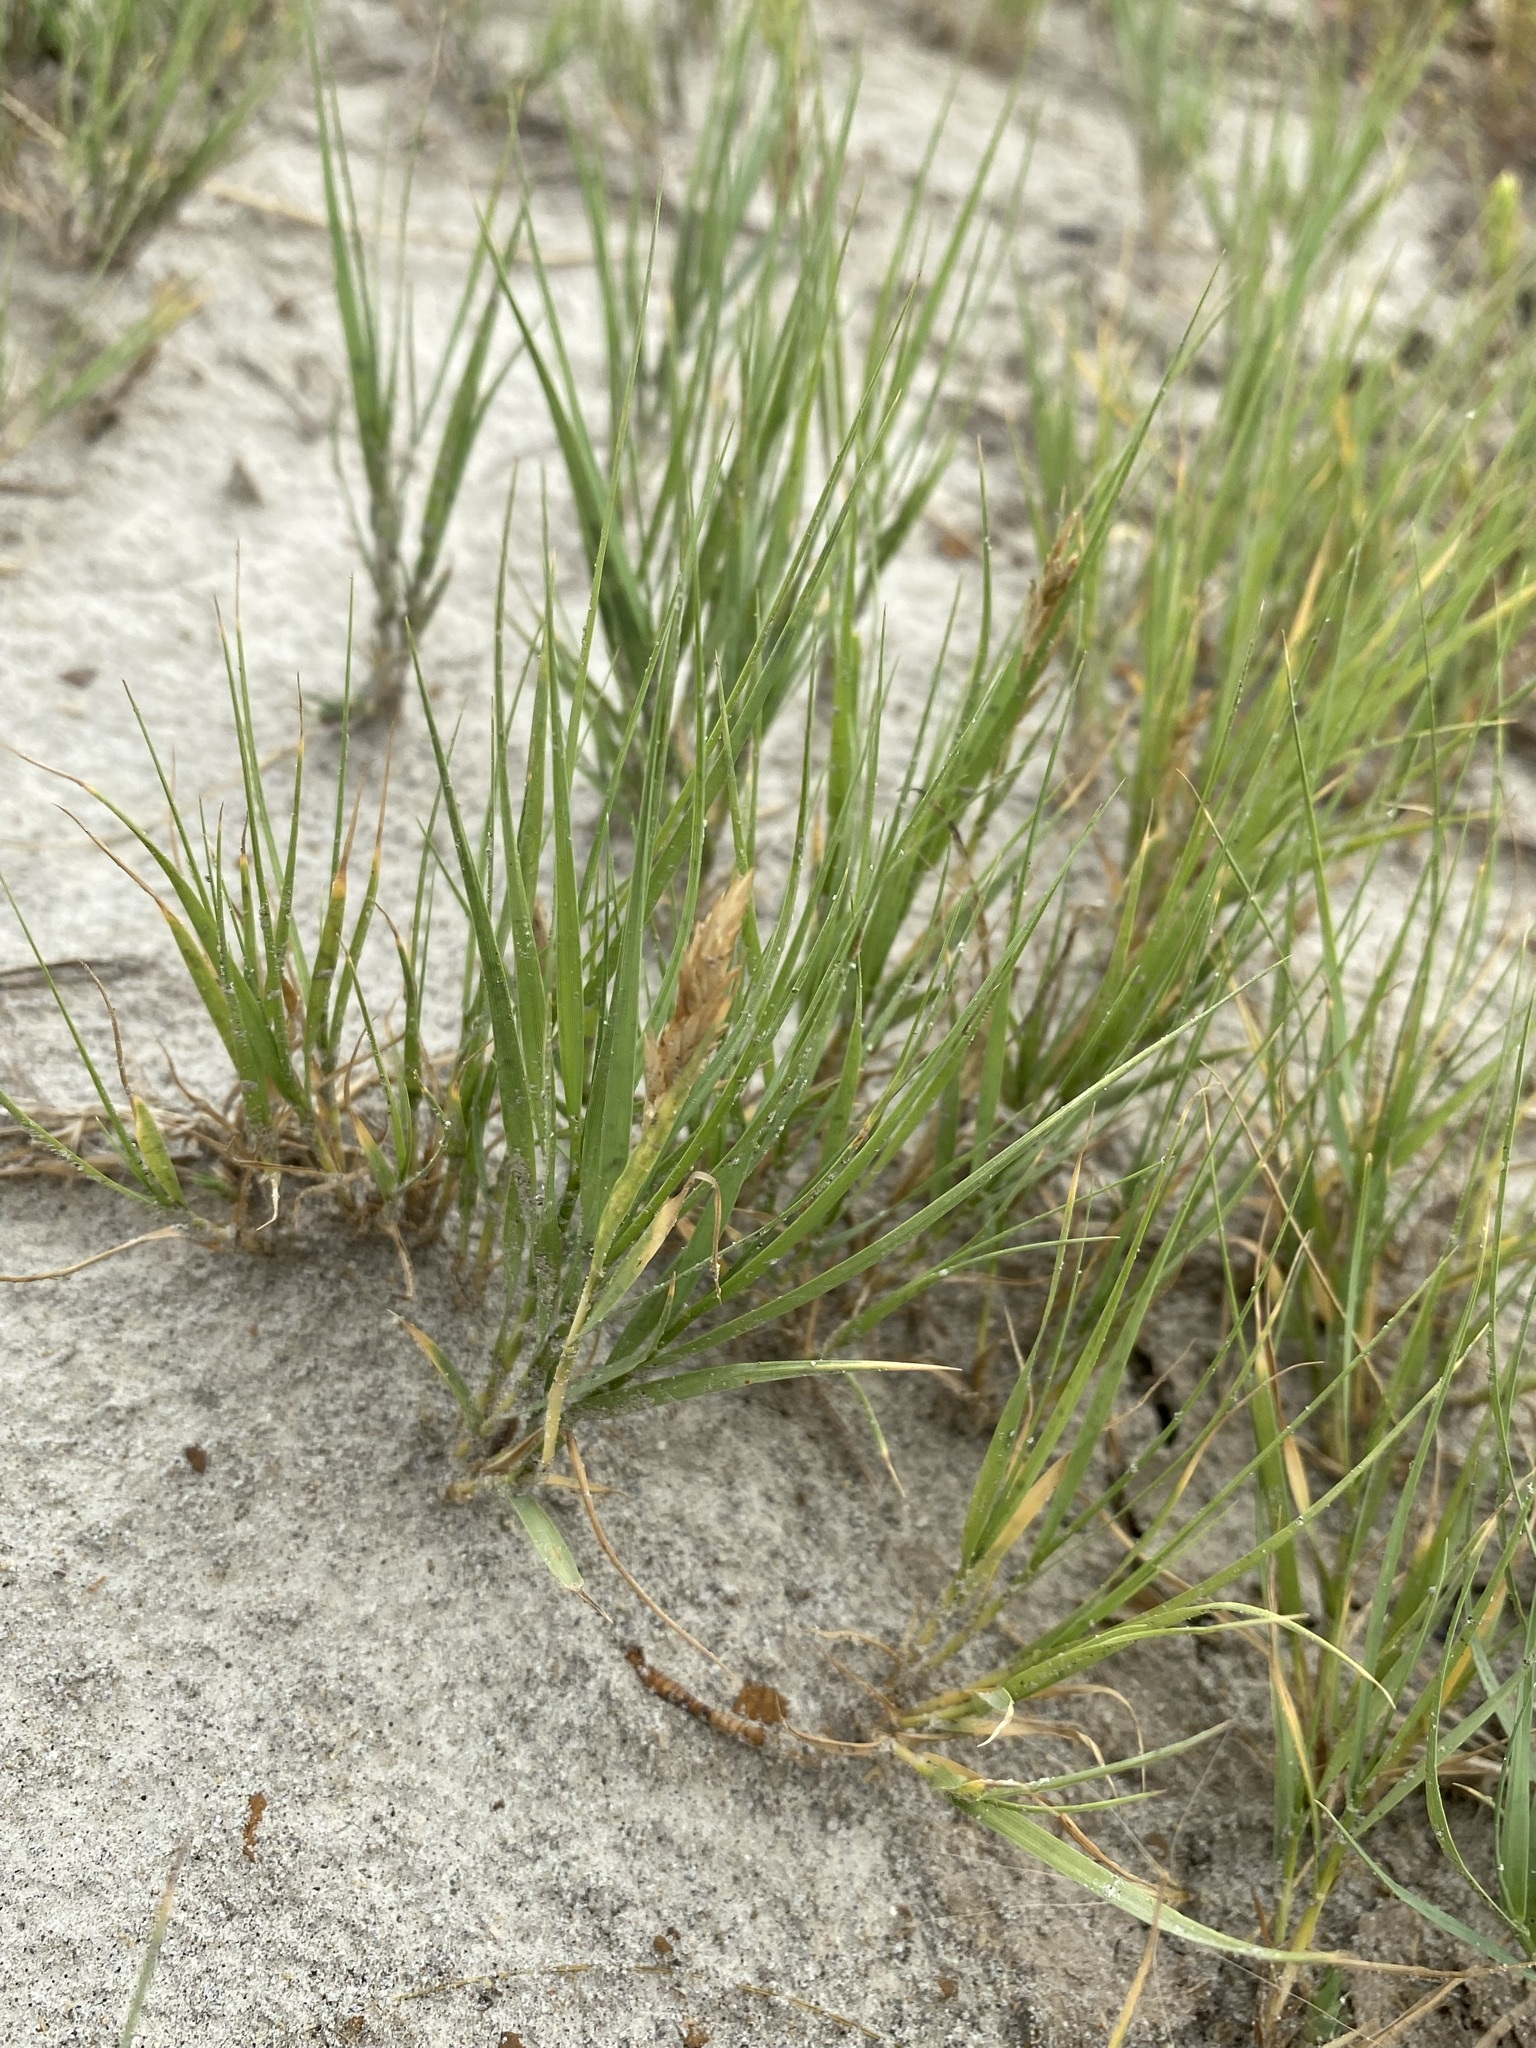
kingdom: Plantae
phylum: Tracheophyta
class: Liliopsida
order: Poales
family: Poaceae
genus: Distichlis
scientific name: Distichlis spicata
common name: Saltgrass
